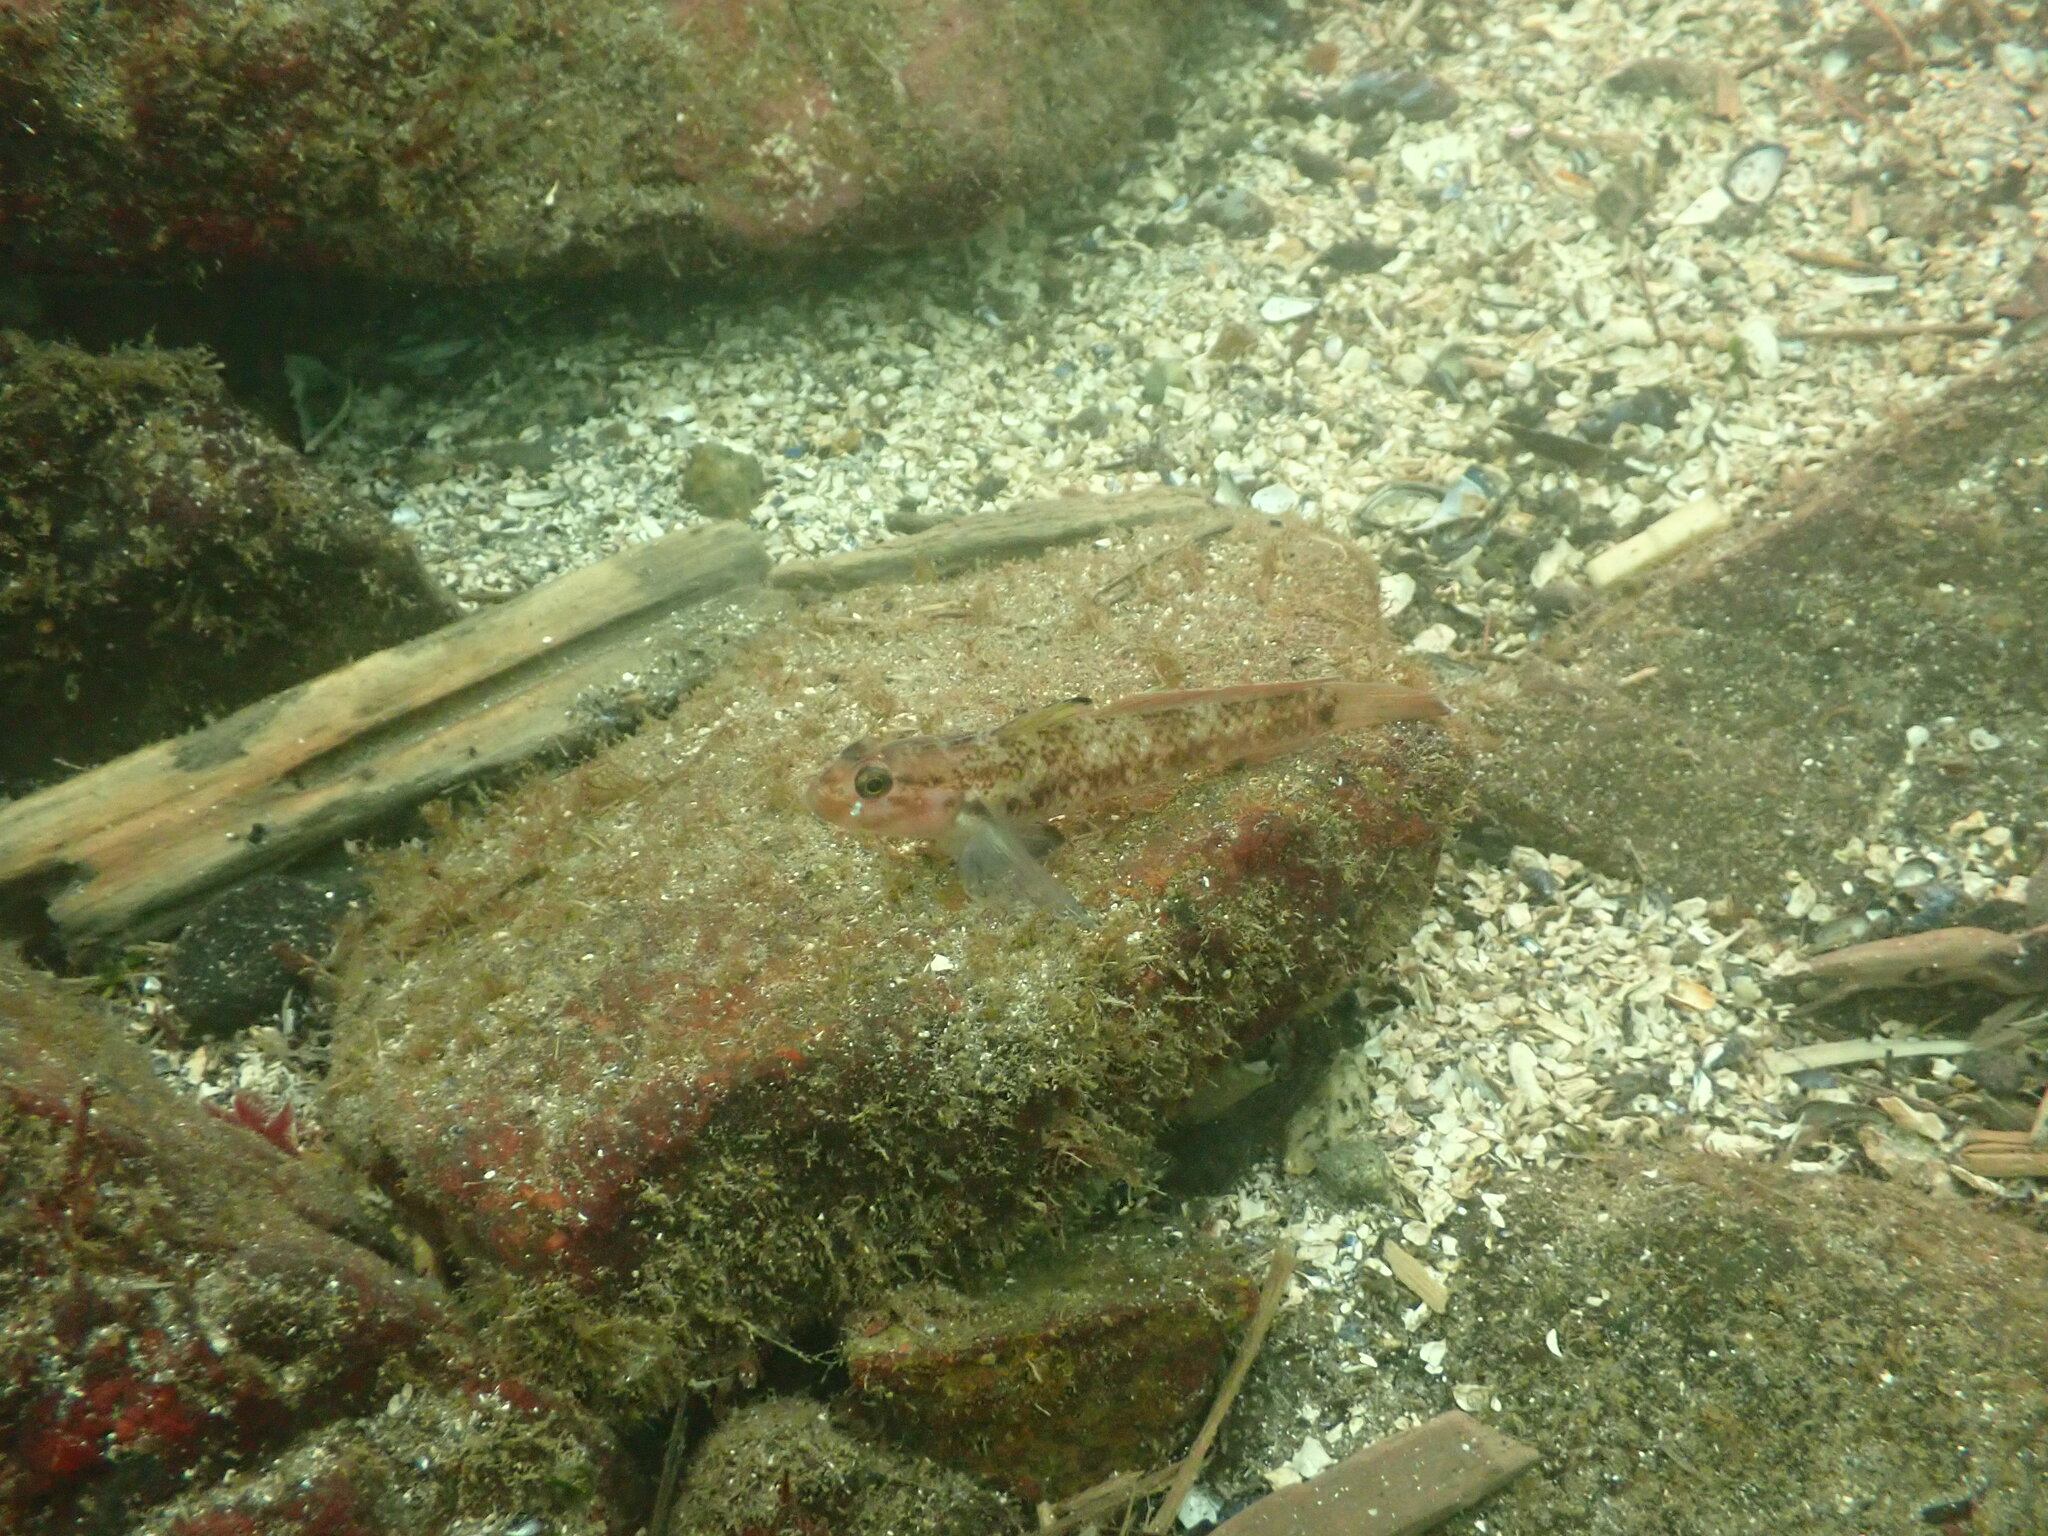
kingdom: Animalia
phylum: Chordata
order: Perciformes
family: Gobiidae
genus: Rhinogobiops
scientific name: Rhinogobiops nicholsii
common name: Blackeye goby
